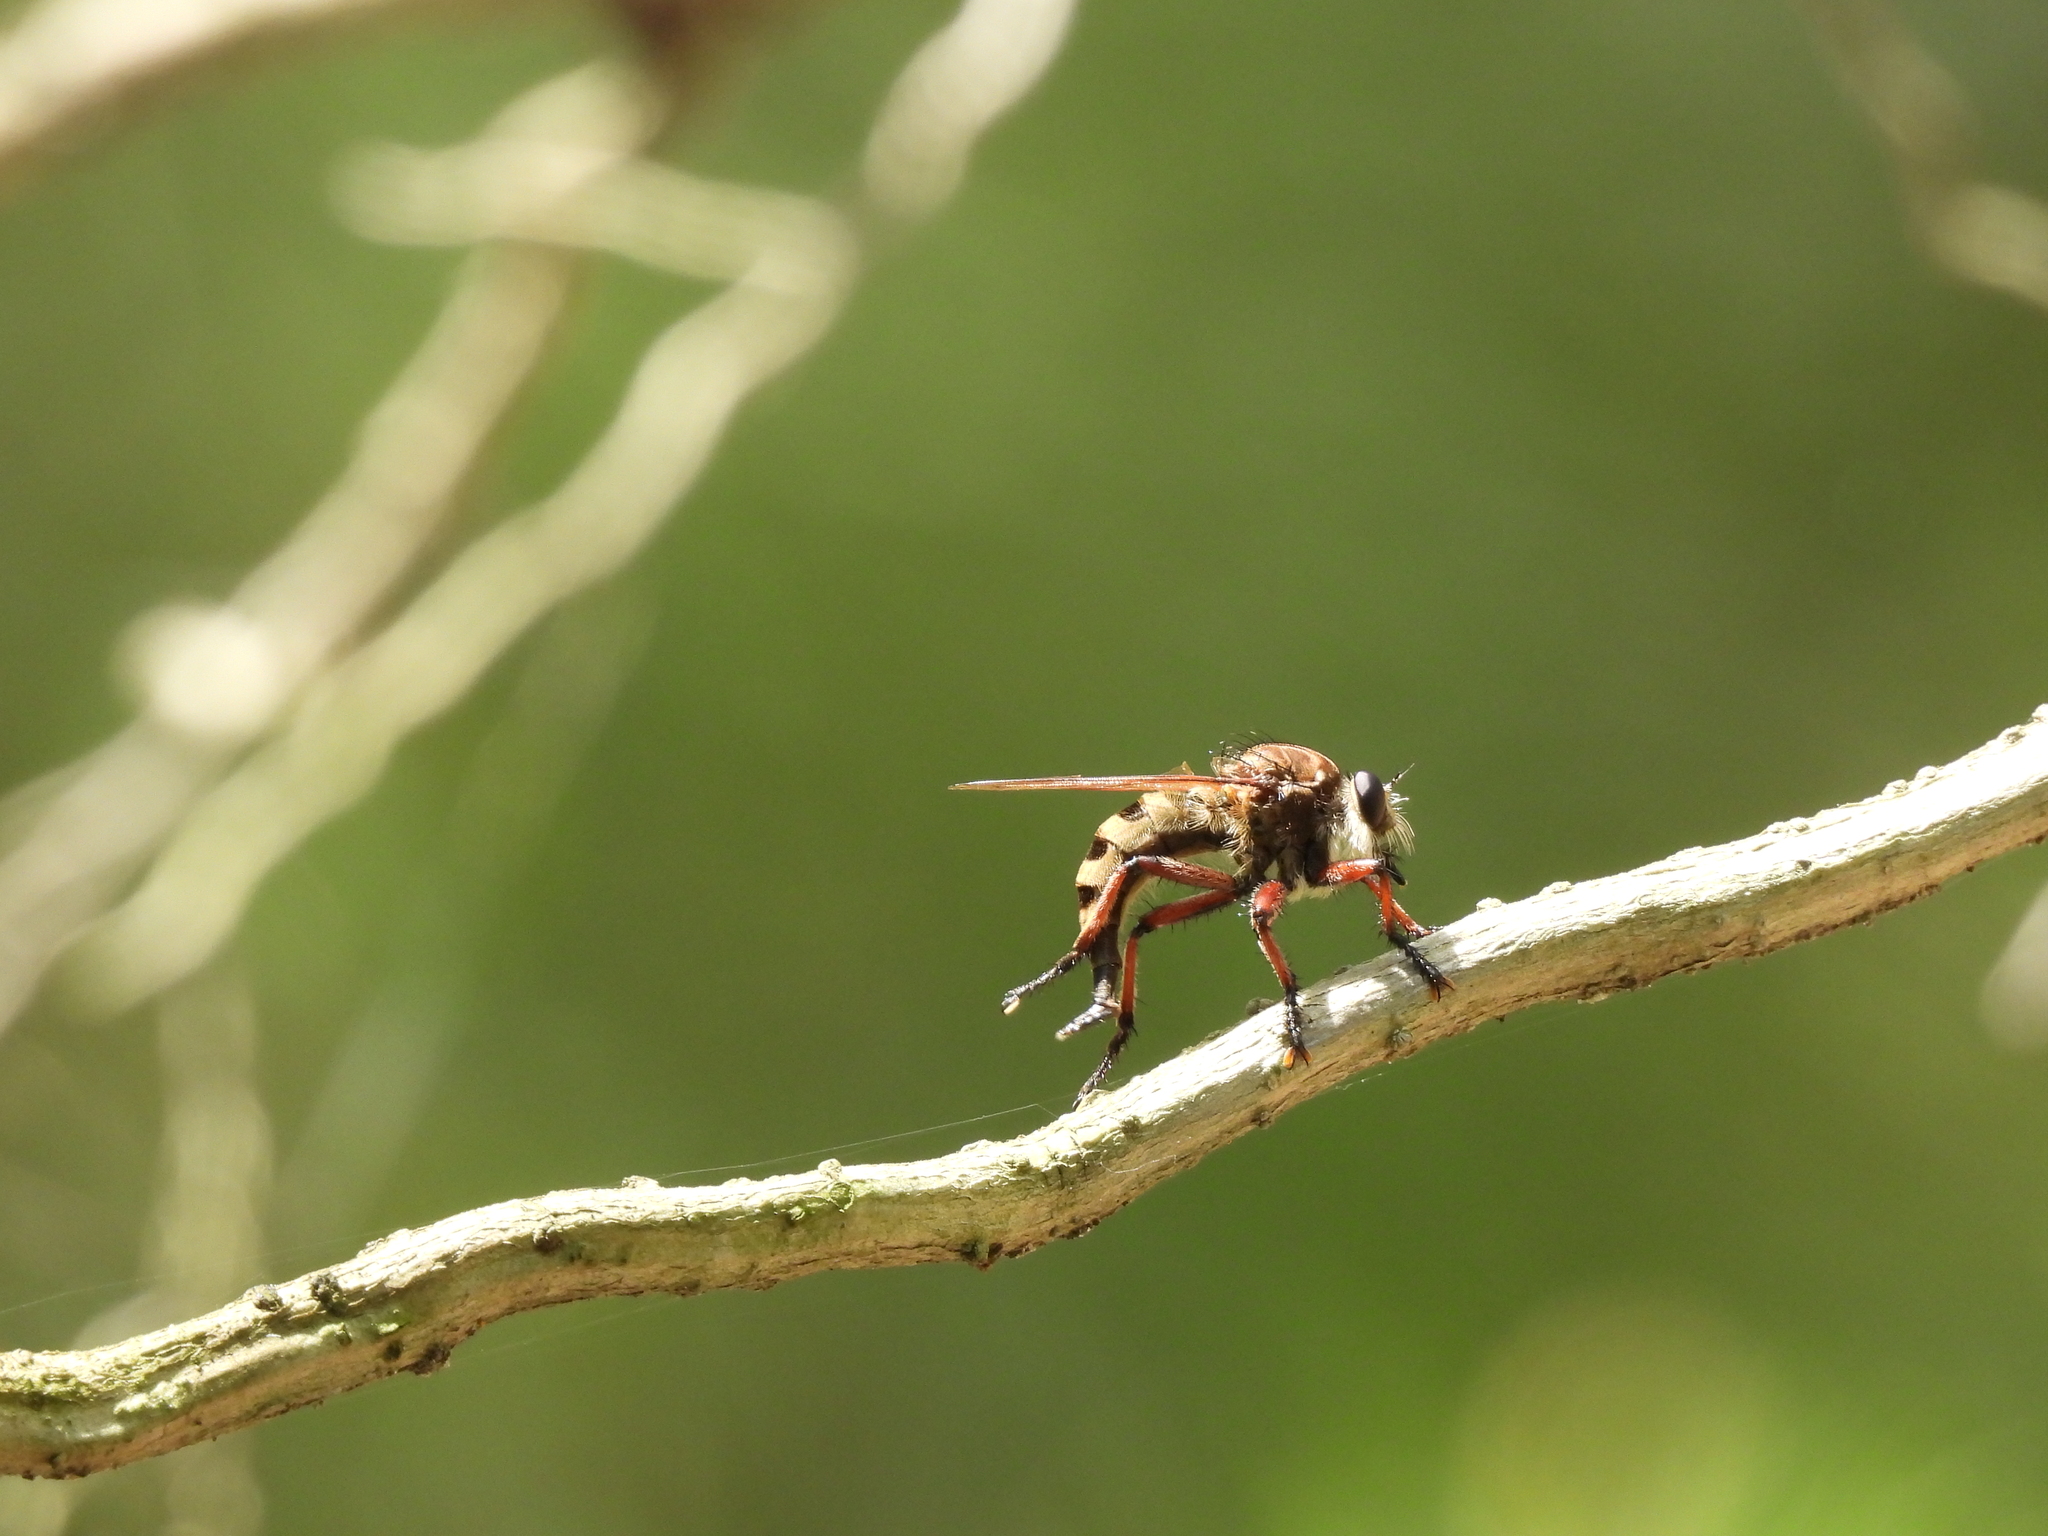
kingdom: Animalia
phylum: Arthropoda
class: Insecta
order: Diptera
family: Asilidae
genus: Promachus
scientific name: Promachus hinei
